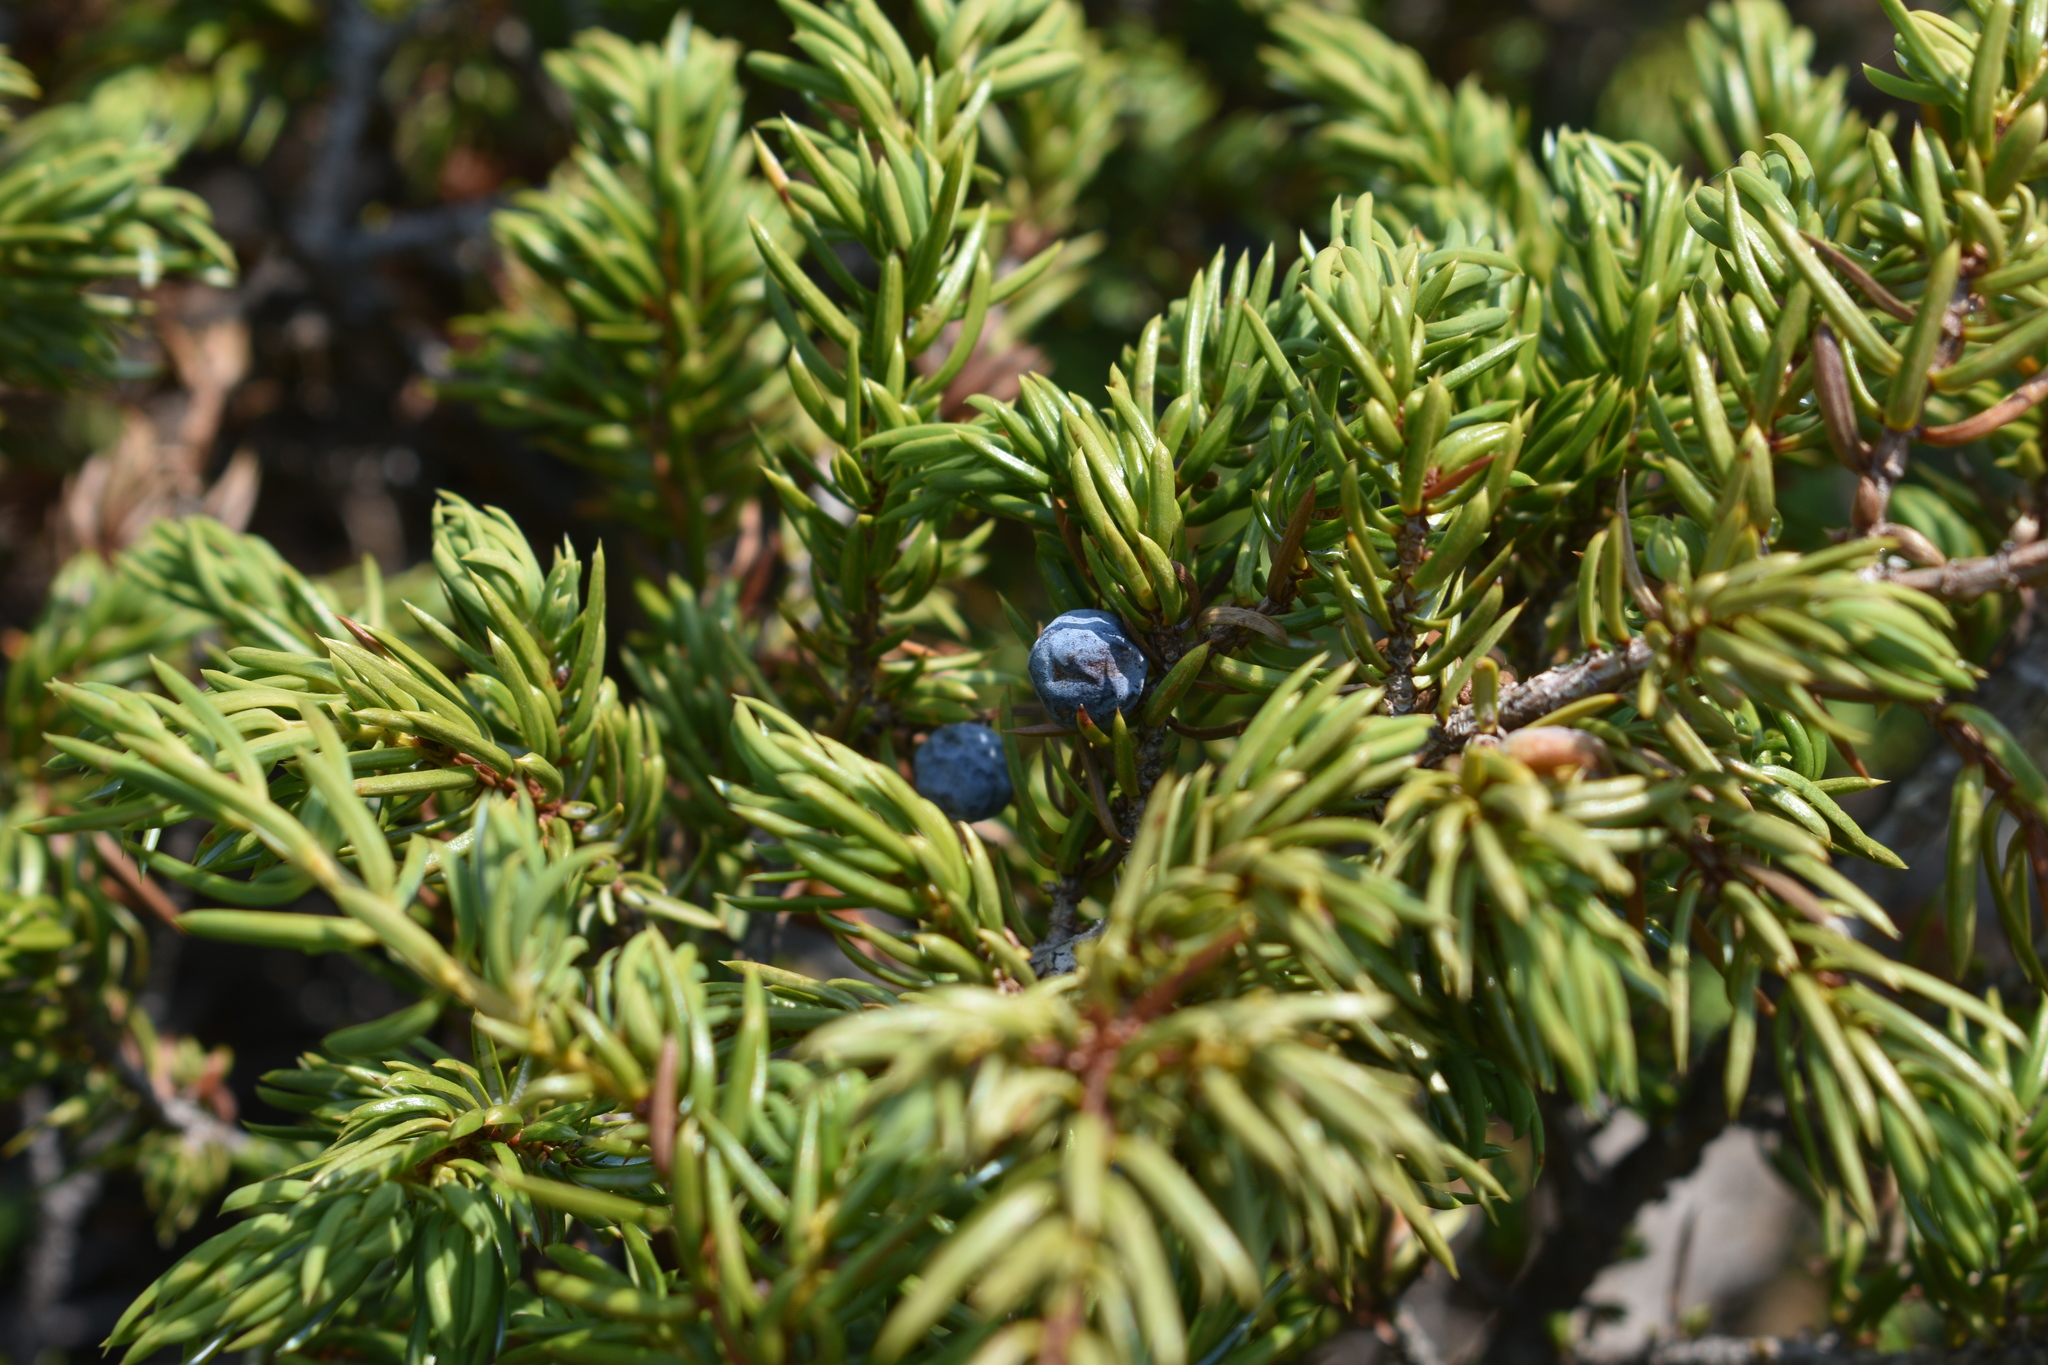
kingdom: Plantae
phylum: Tracheophyta
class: Pinopsida
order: Pinales
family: Cupressaceae
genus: Juniperus
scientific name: Juniperus communis
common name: Common juniper
